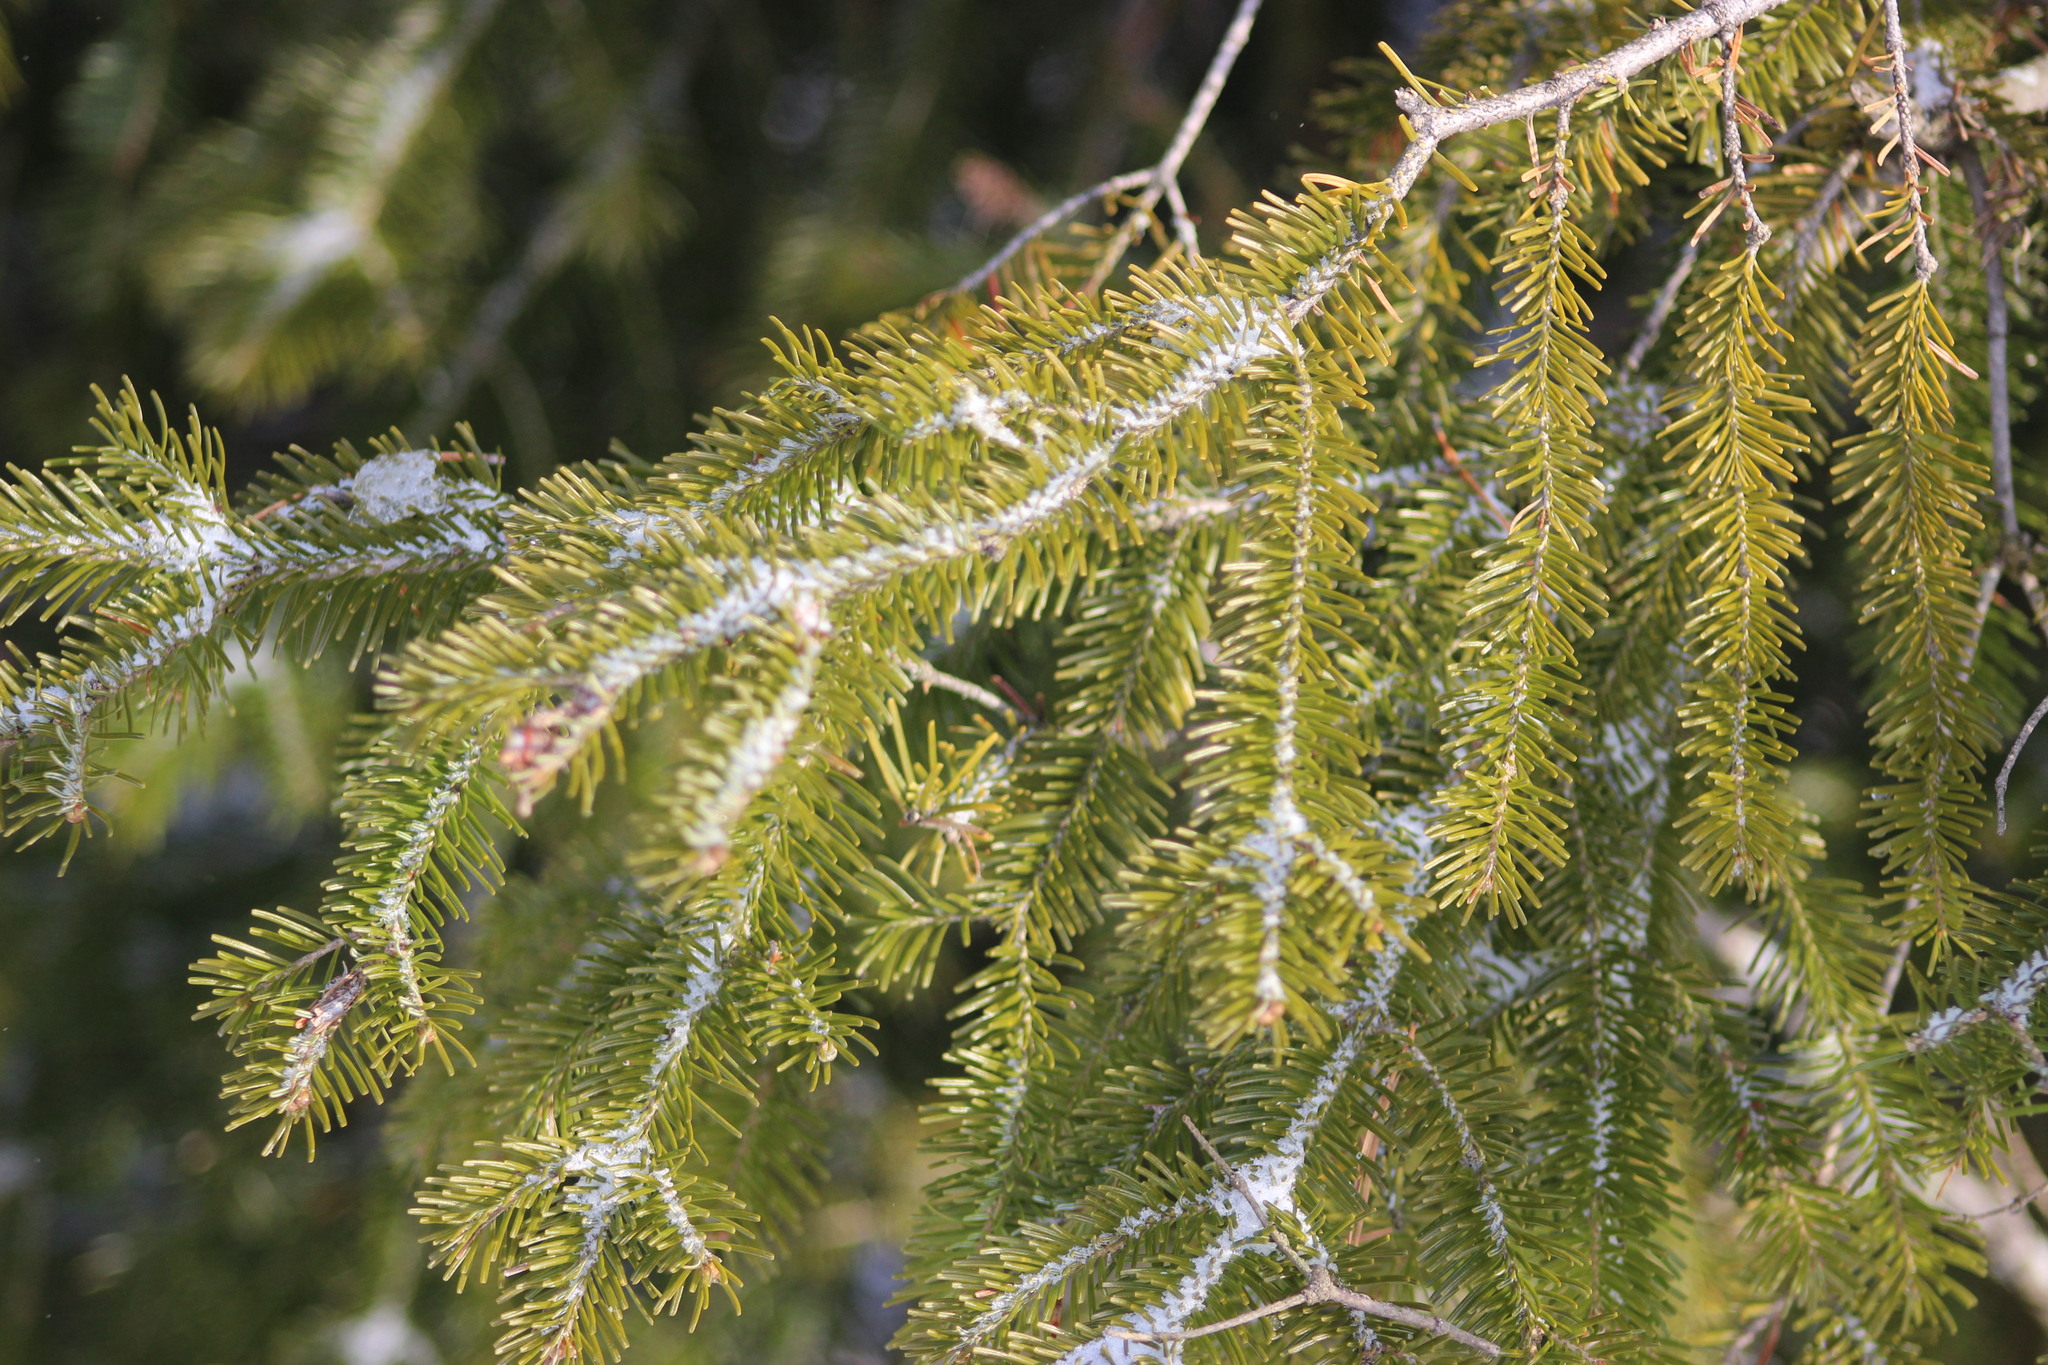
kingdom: Plantae
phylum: Tracheophyta
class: Pinopsida
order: Pinales
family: Pinaceae
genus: Abies
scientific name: Abies sibirica
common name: Siberian fir
